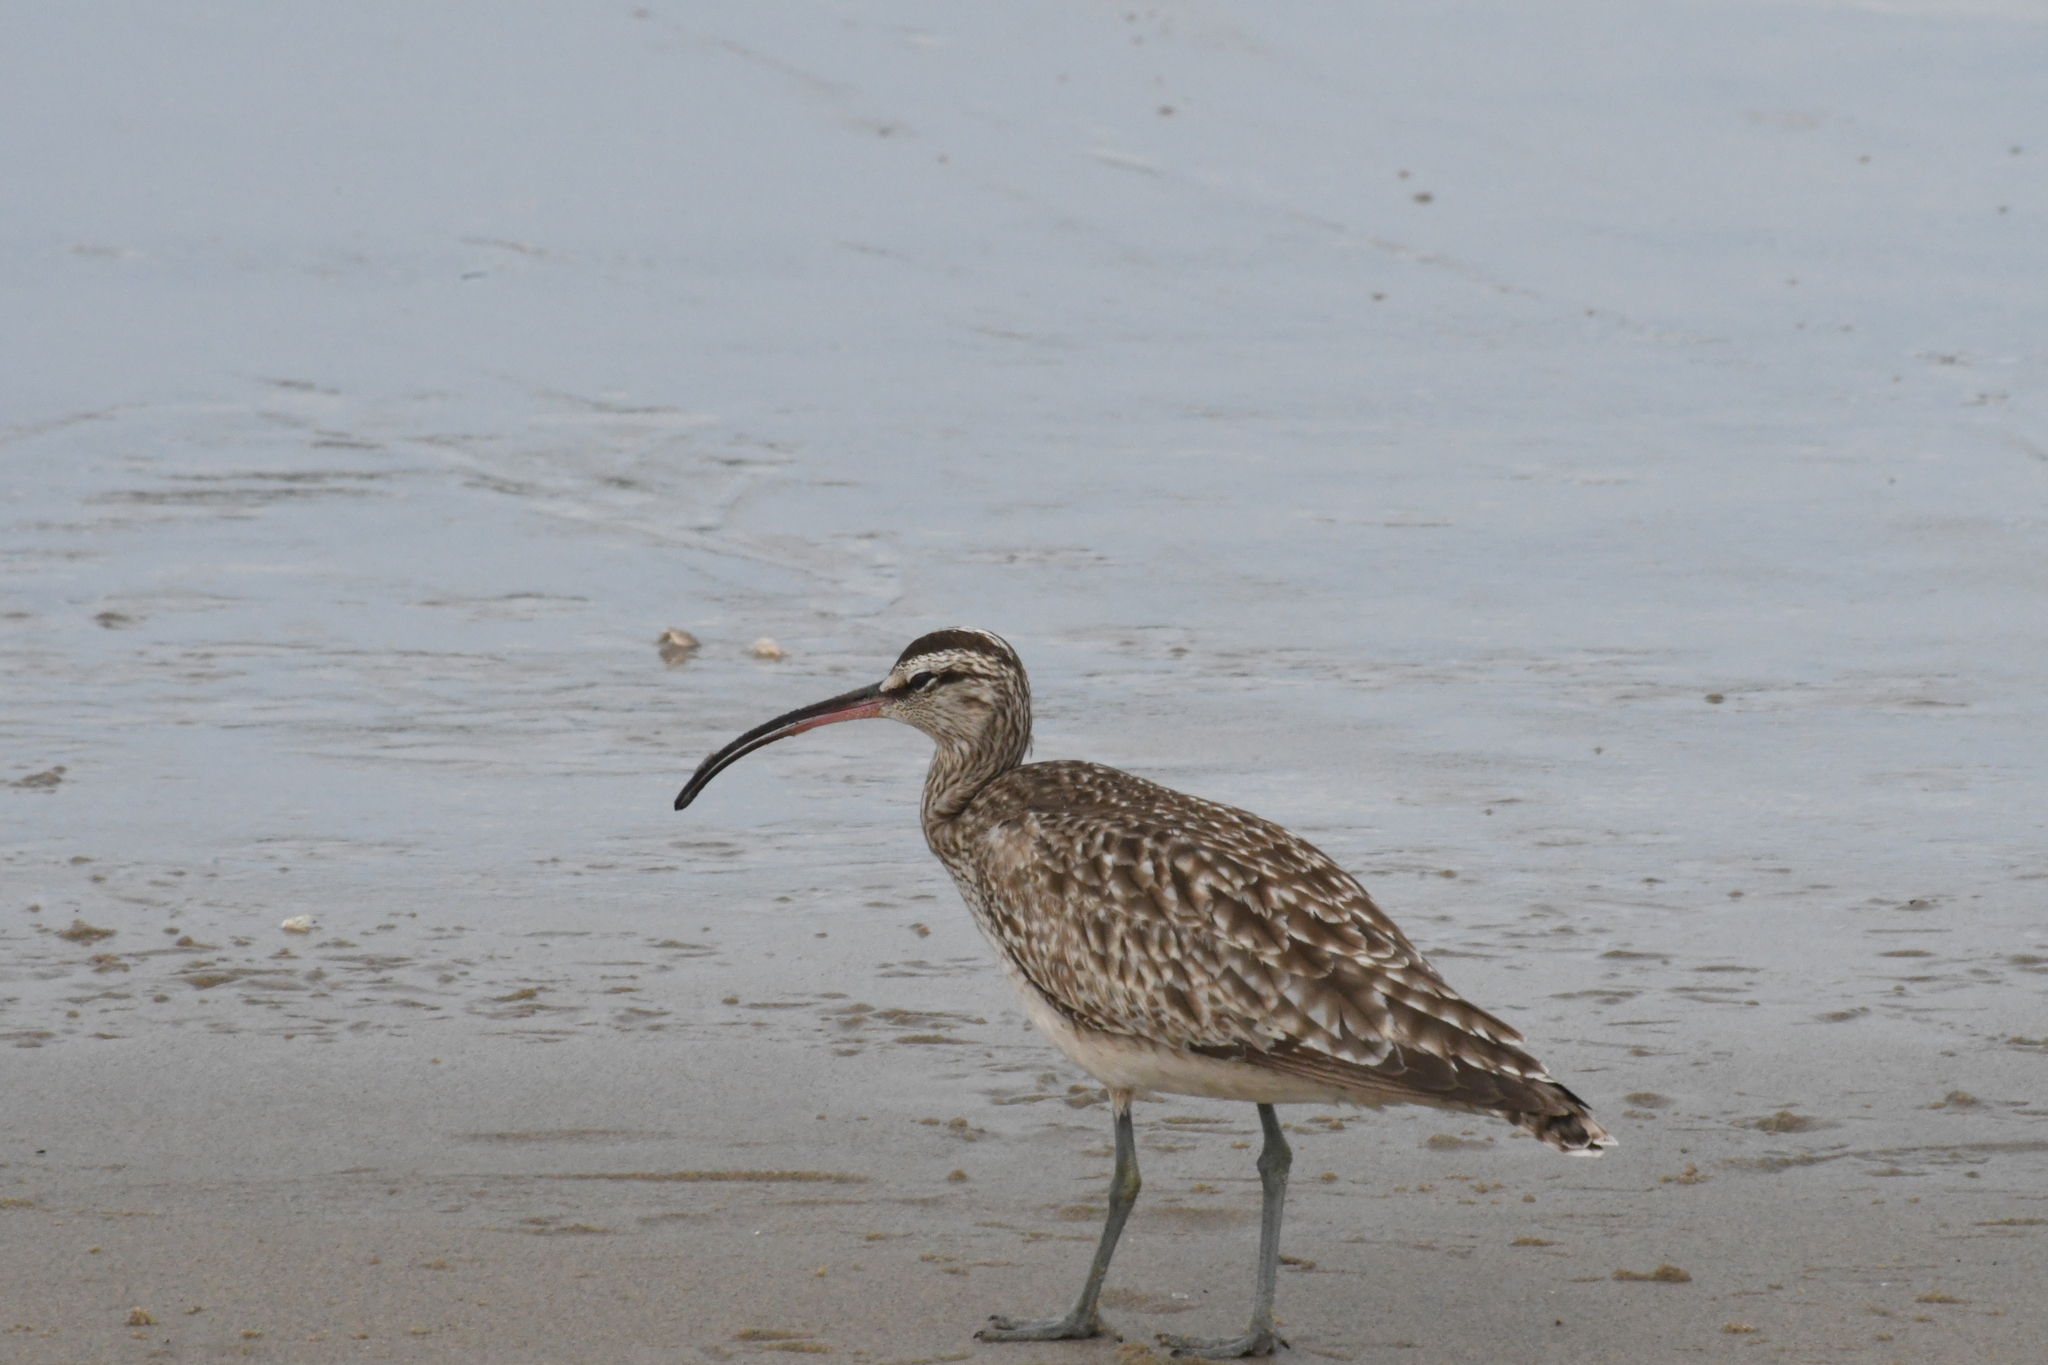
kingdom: Animalia
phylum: Chordata
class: Aves
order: Charadriiformes
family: Scolopacidae
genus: Numenius
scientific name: Numenius phaeopus
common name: Whimbrel
